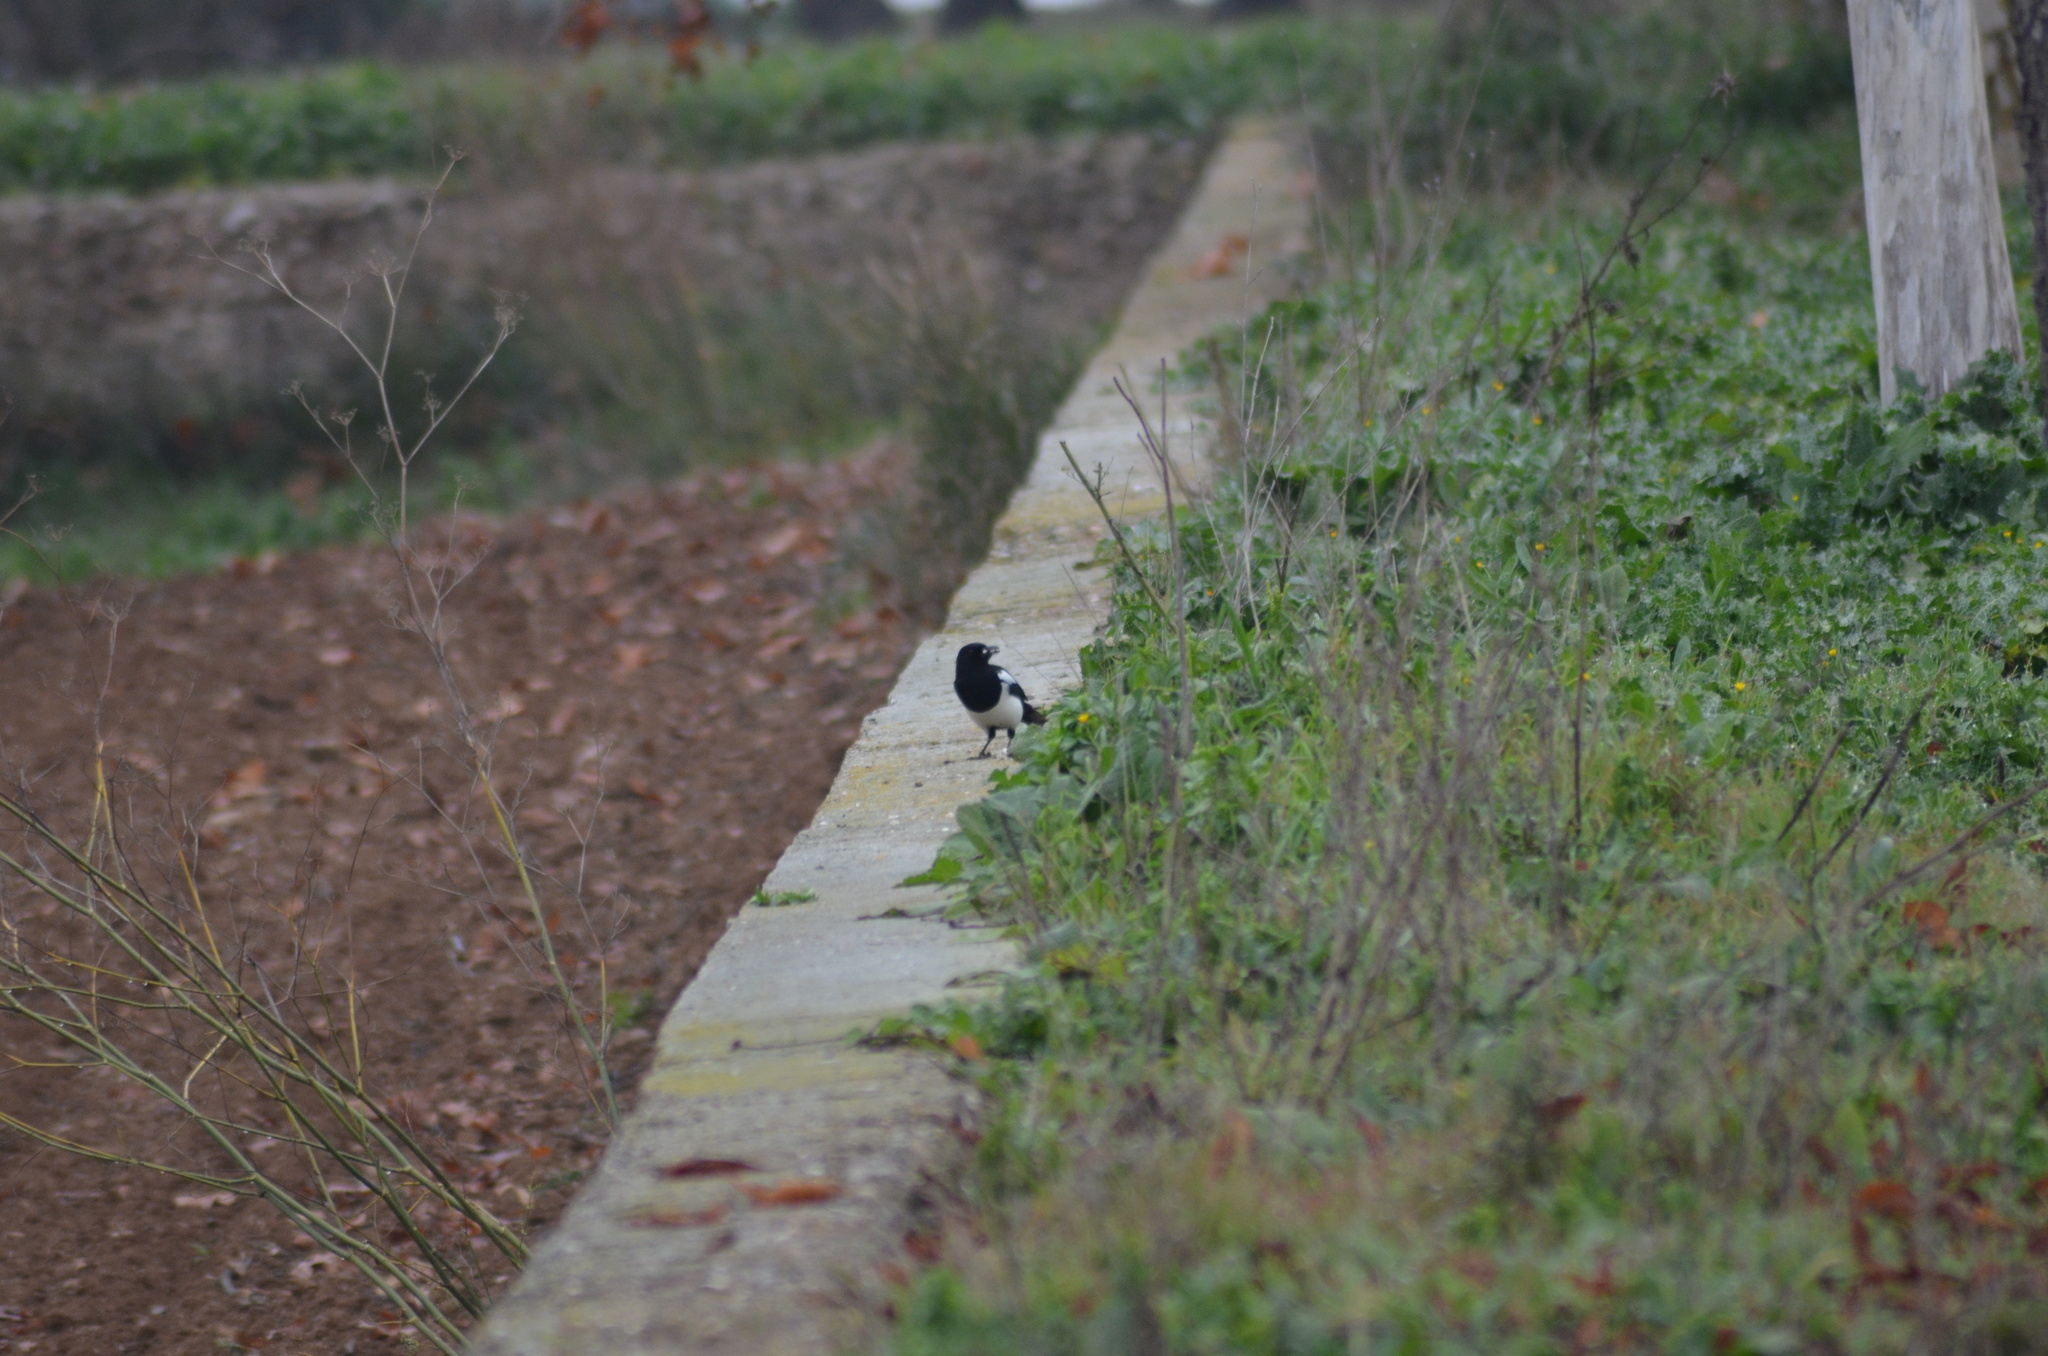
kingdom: Animalia
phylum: Chordata
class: Aves
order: Passeriformes
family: Corvidae
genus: Pica
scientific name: Pica pica
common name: Eurasian magpie
